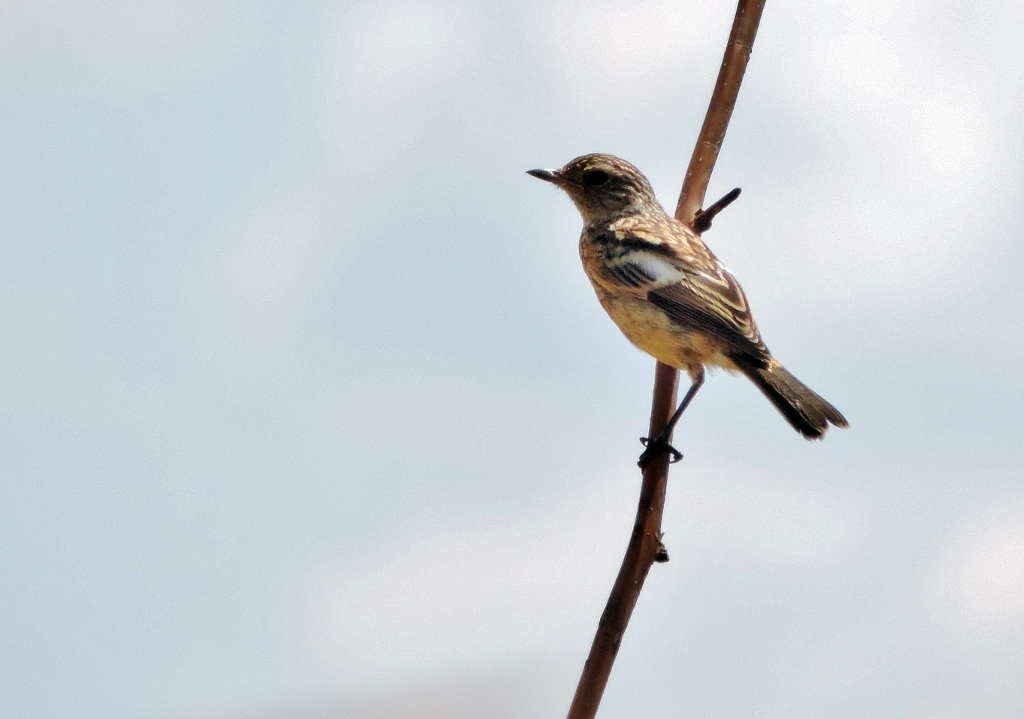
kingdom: Animalia
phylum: Chordata
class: Aves
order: Passeriformes
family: Muscicapidae
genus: Saxicola
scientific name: Saxicola torquatus
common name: African stonechat
